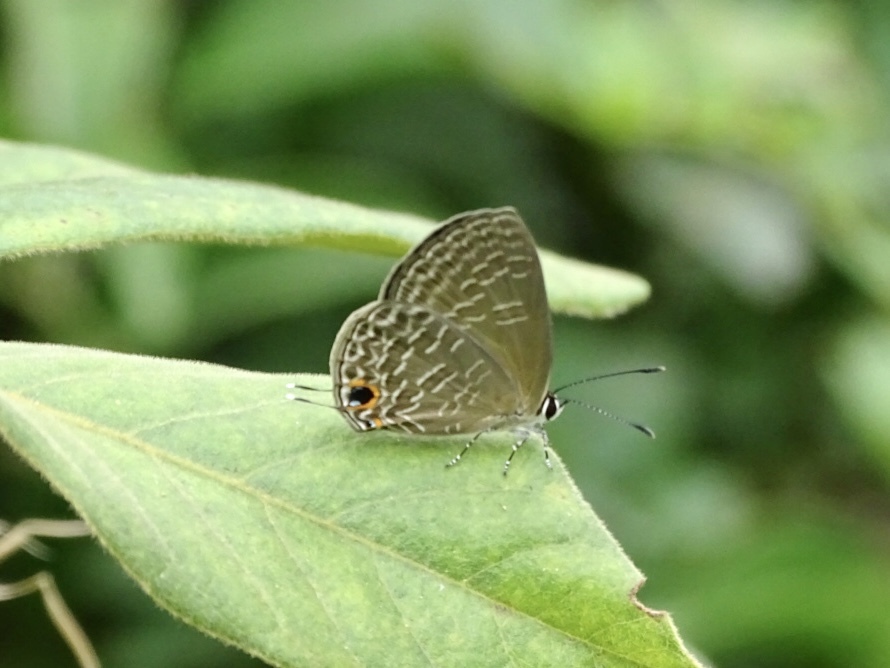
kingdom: Animalia
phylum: Arthropoda
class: Insecta
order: Lepidoptera
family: Lycaenidae
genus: Jamides
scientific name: Jamides bochus
